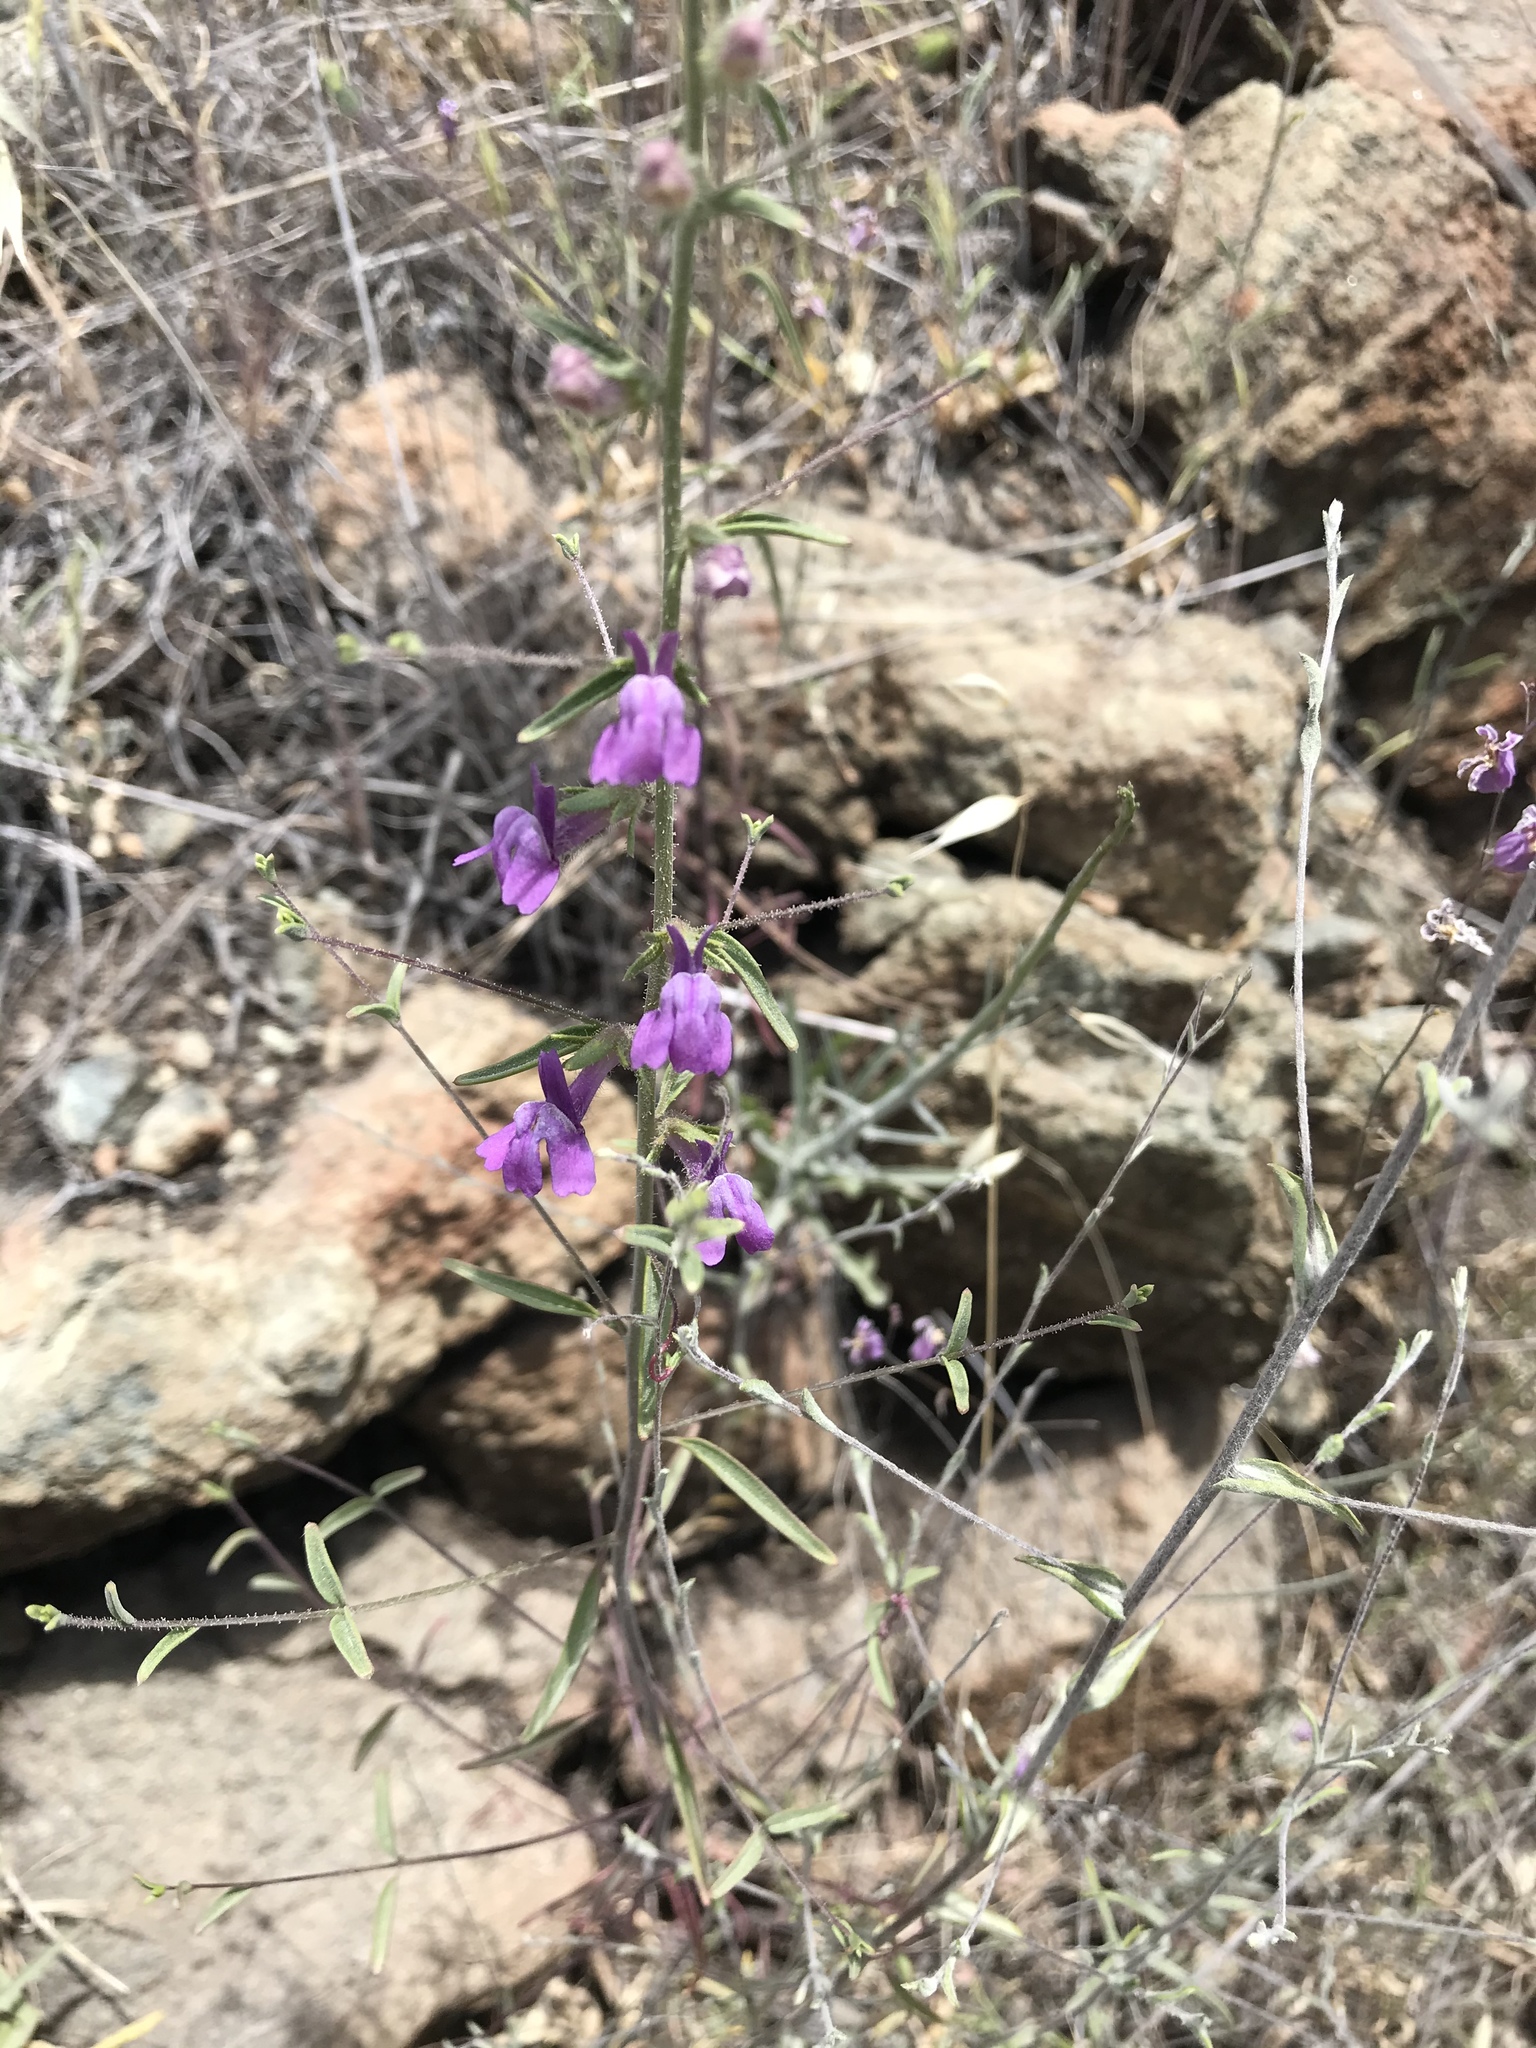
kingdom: Plantae
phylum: Tracheophyta
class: Magnoliopsida
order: Lamiales
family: Plantaginaceae
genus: Sairocarpus
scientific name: Sairocarpus vexillocalyculatus
